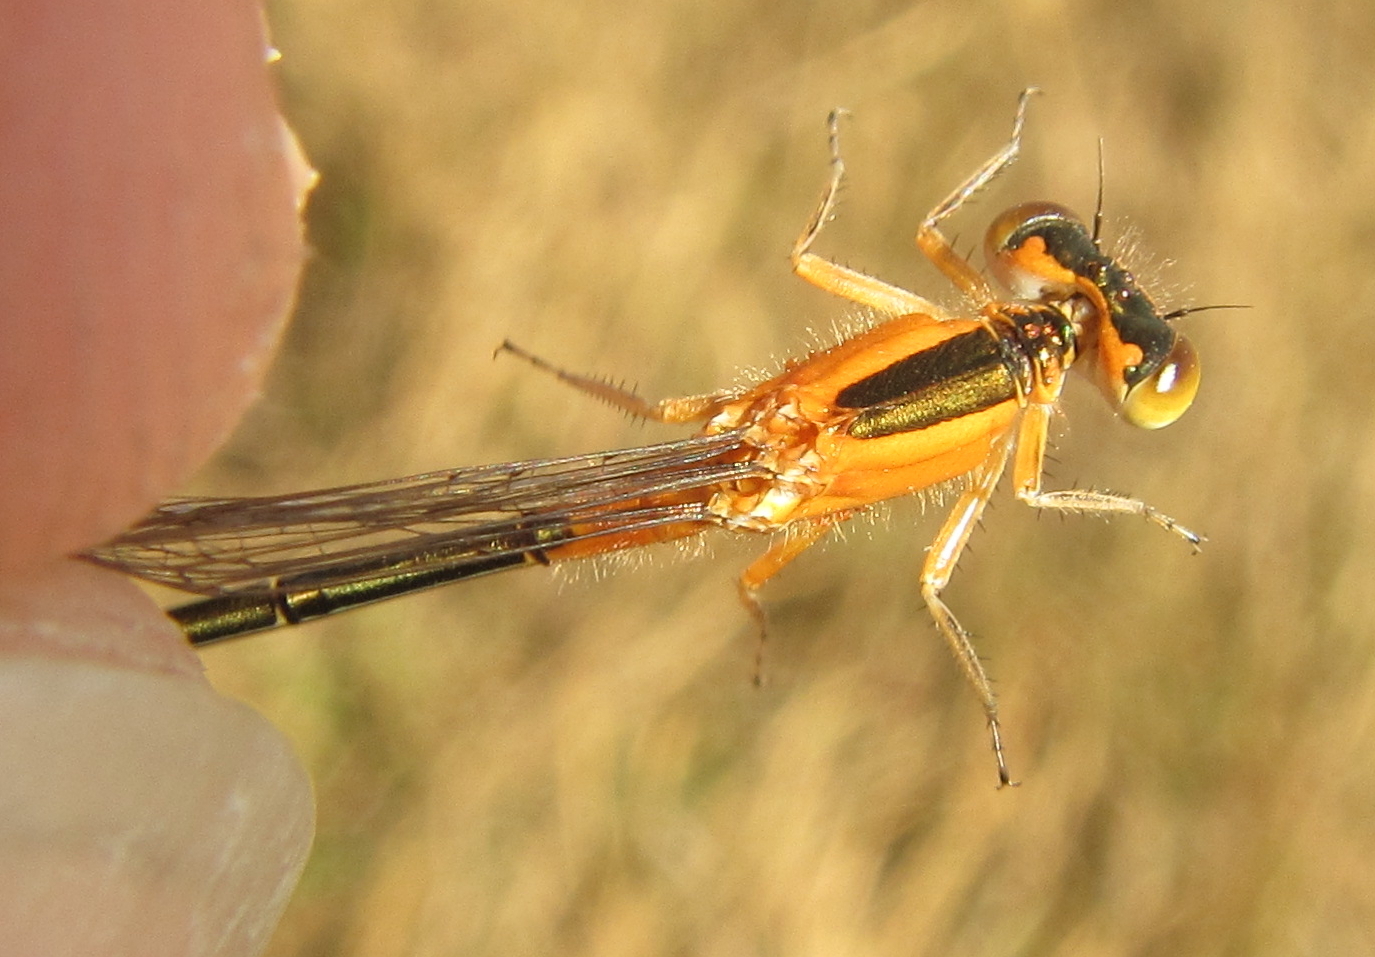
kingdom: Animalia
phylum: Arthropoda
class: Insecta
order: Odonata
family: Coenagrionidae
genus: Ischnura
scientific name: Ischnura senegalensis
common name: Tropical bluetail
